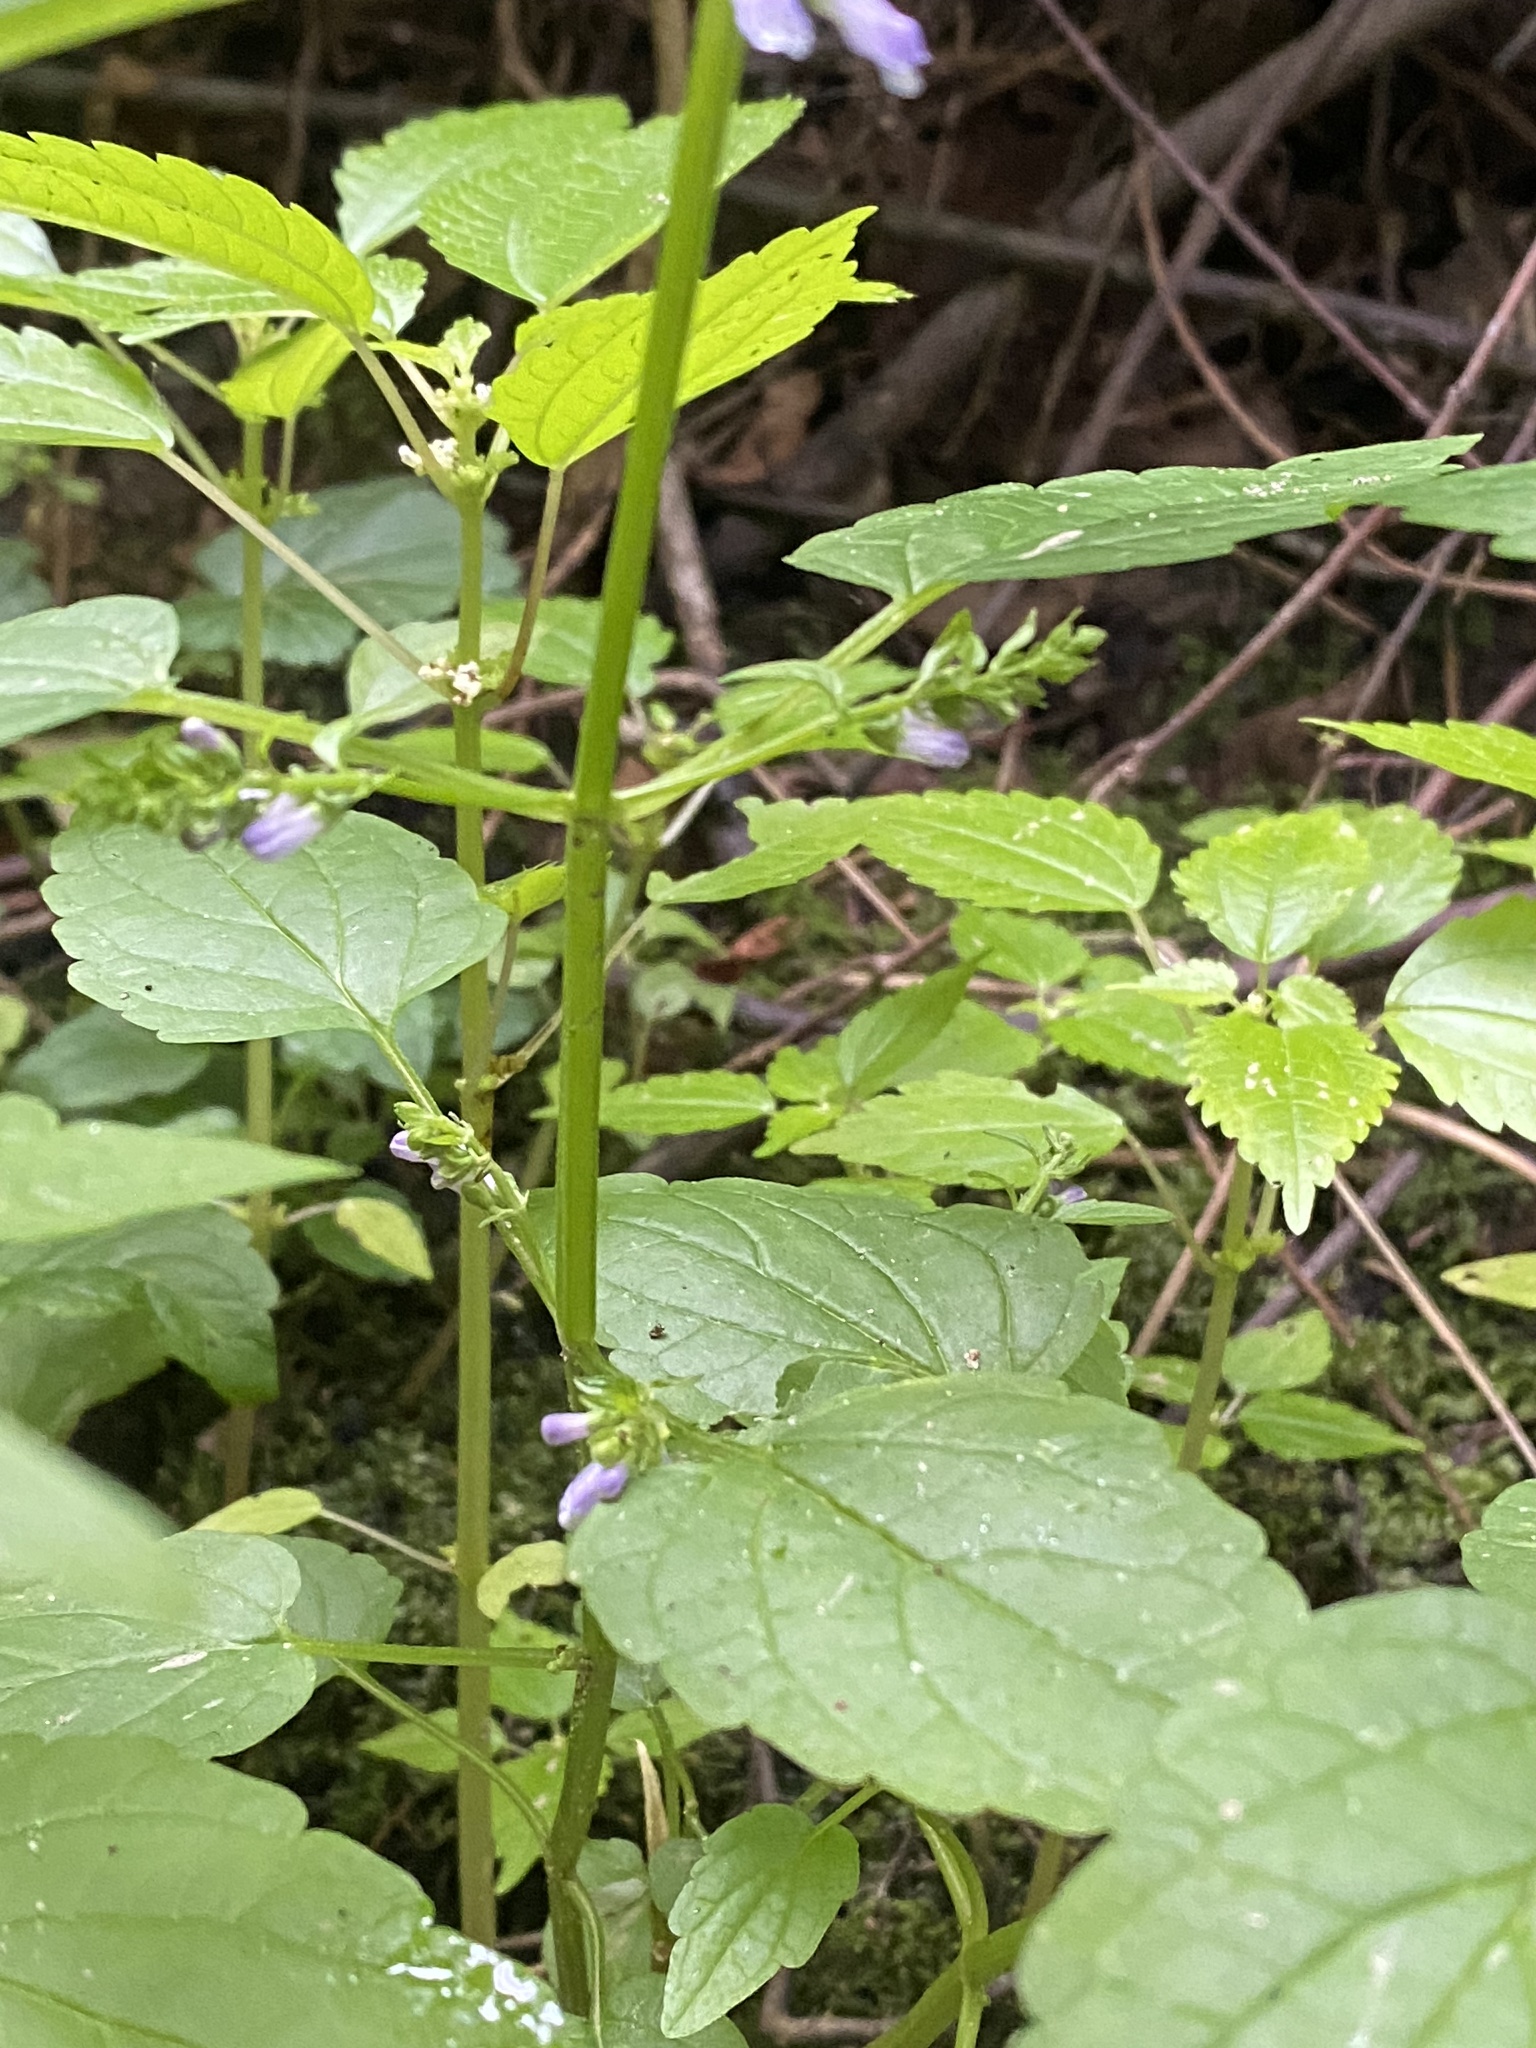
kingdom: Plantae
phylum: Tracheophyta
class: Magnoliopsida
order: Lamiales
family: Lamiaceae
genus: Scutellaria
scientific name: Scutellaria lateriflora
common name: Blue skullcap
